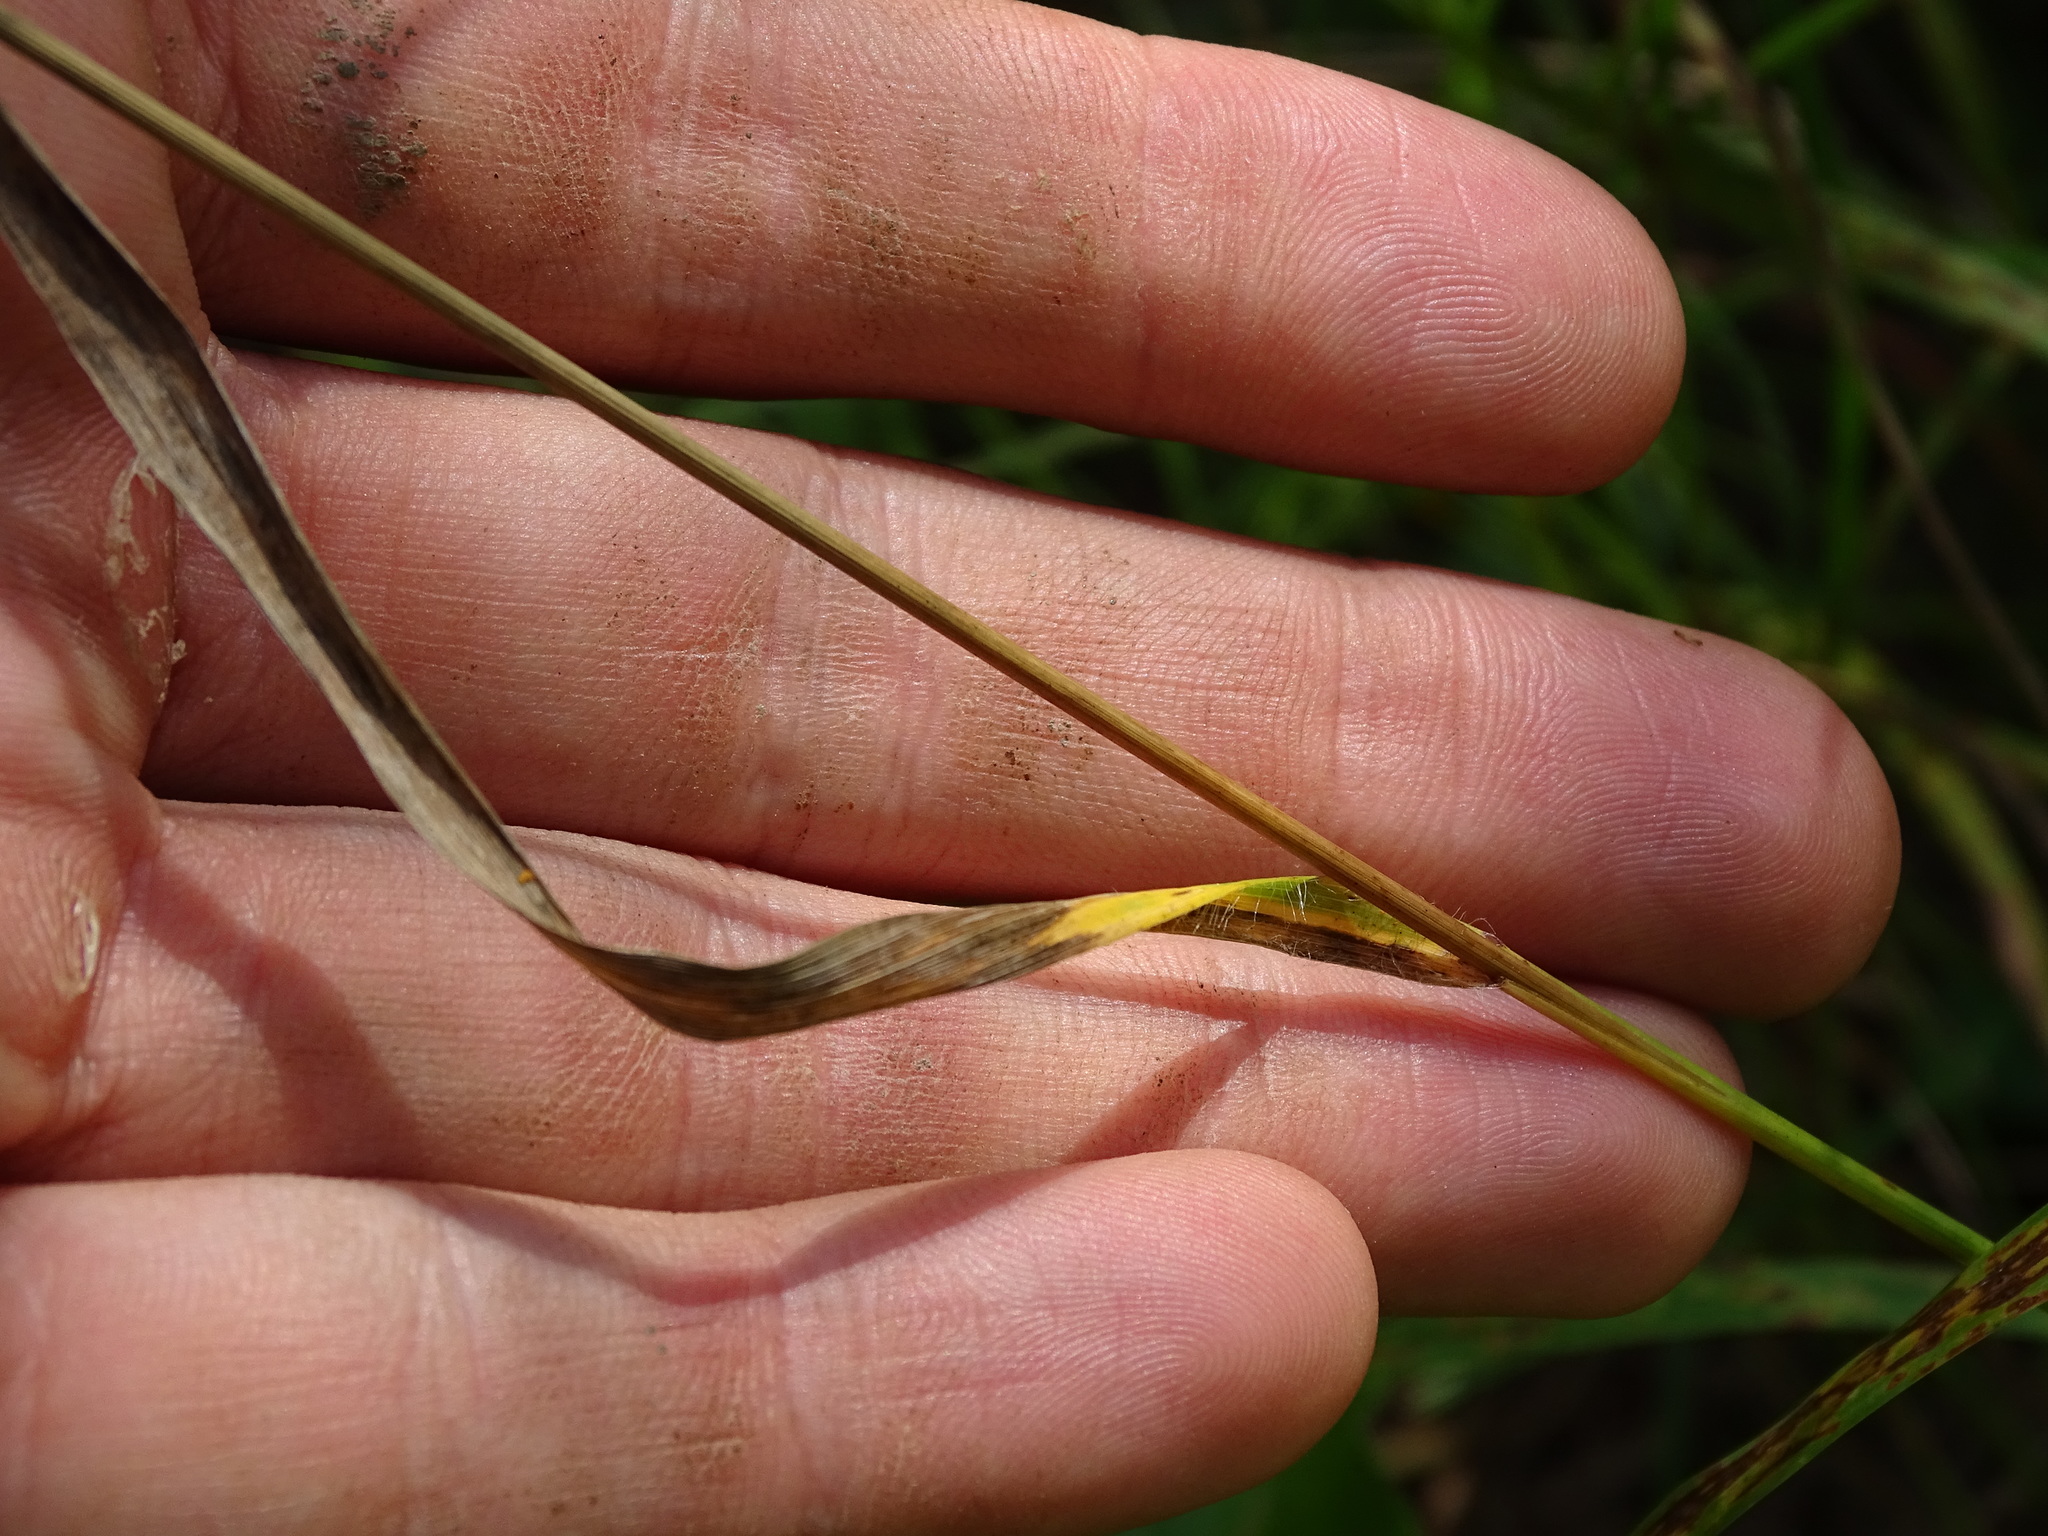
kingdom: Plantae
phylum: Tracheophyta
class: Liliopsida
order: Poales
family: Poaceae
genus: Bromus
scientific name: Bromus kalmii
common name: Kalm brome
